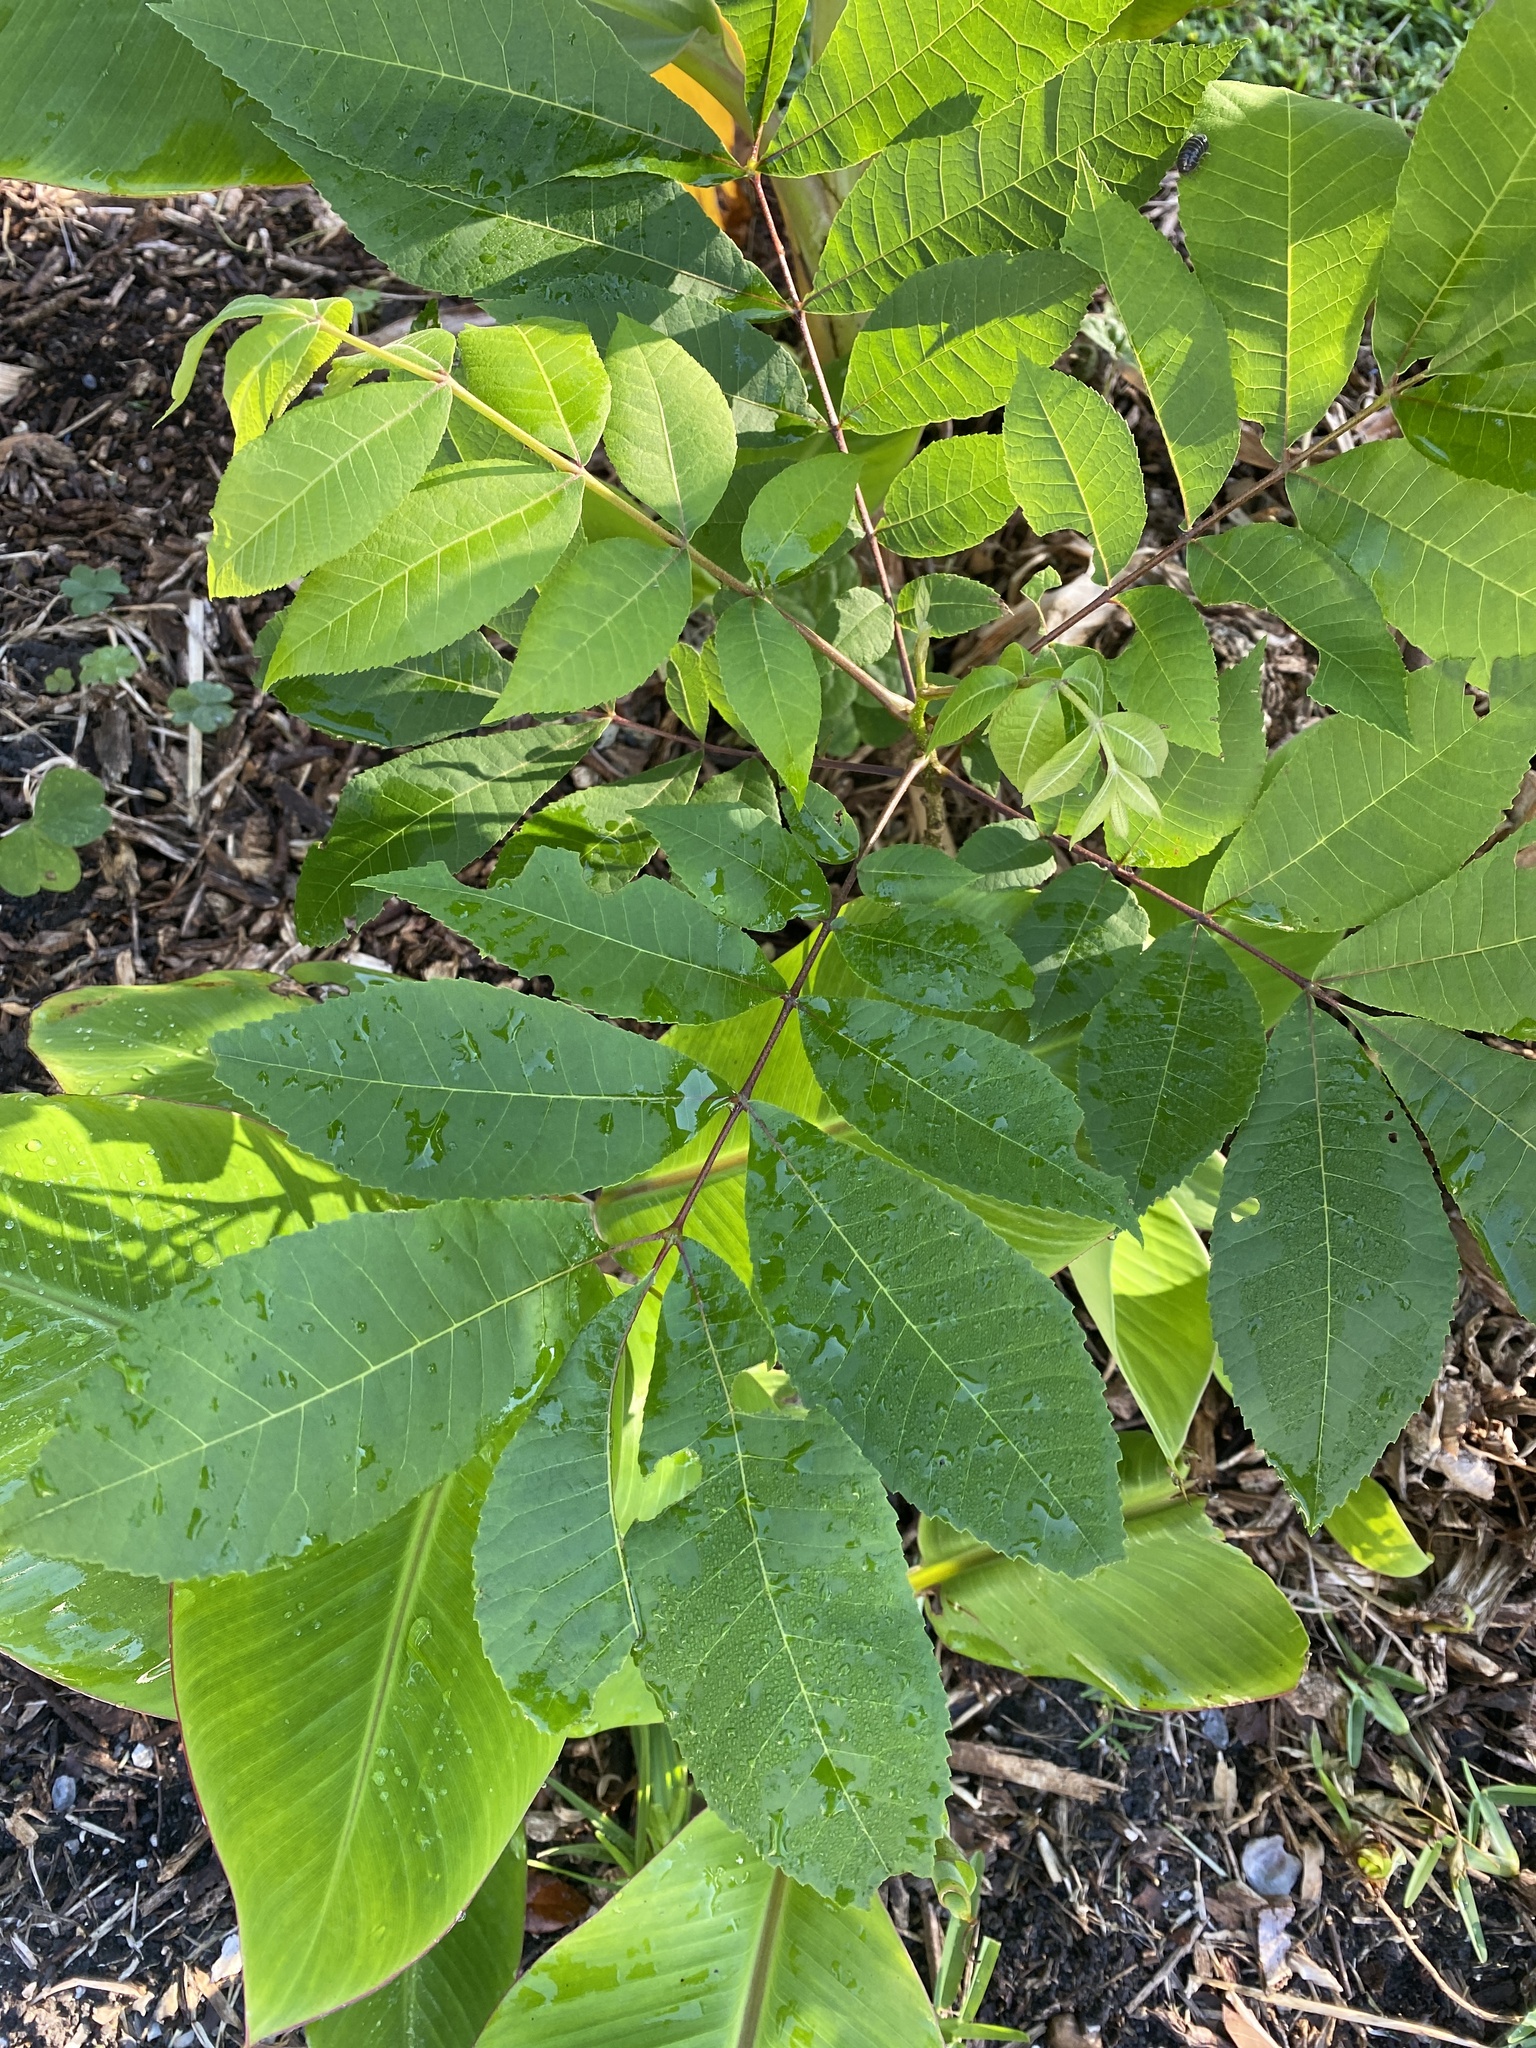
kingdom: Plantae
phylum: Tracheophyta
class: Magnoliopsida
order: Fagales
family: Juglandaceae
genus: Carya
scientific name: Carya illinoinensis
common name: Pecan
